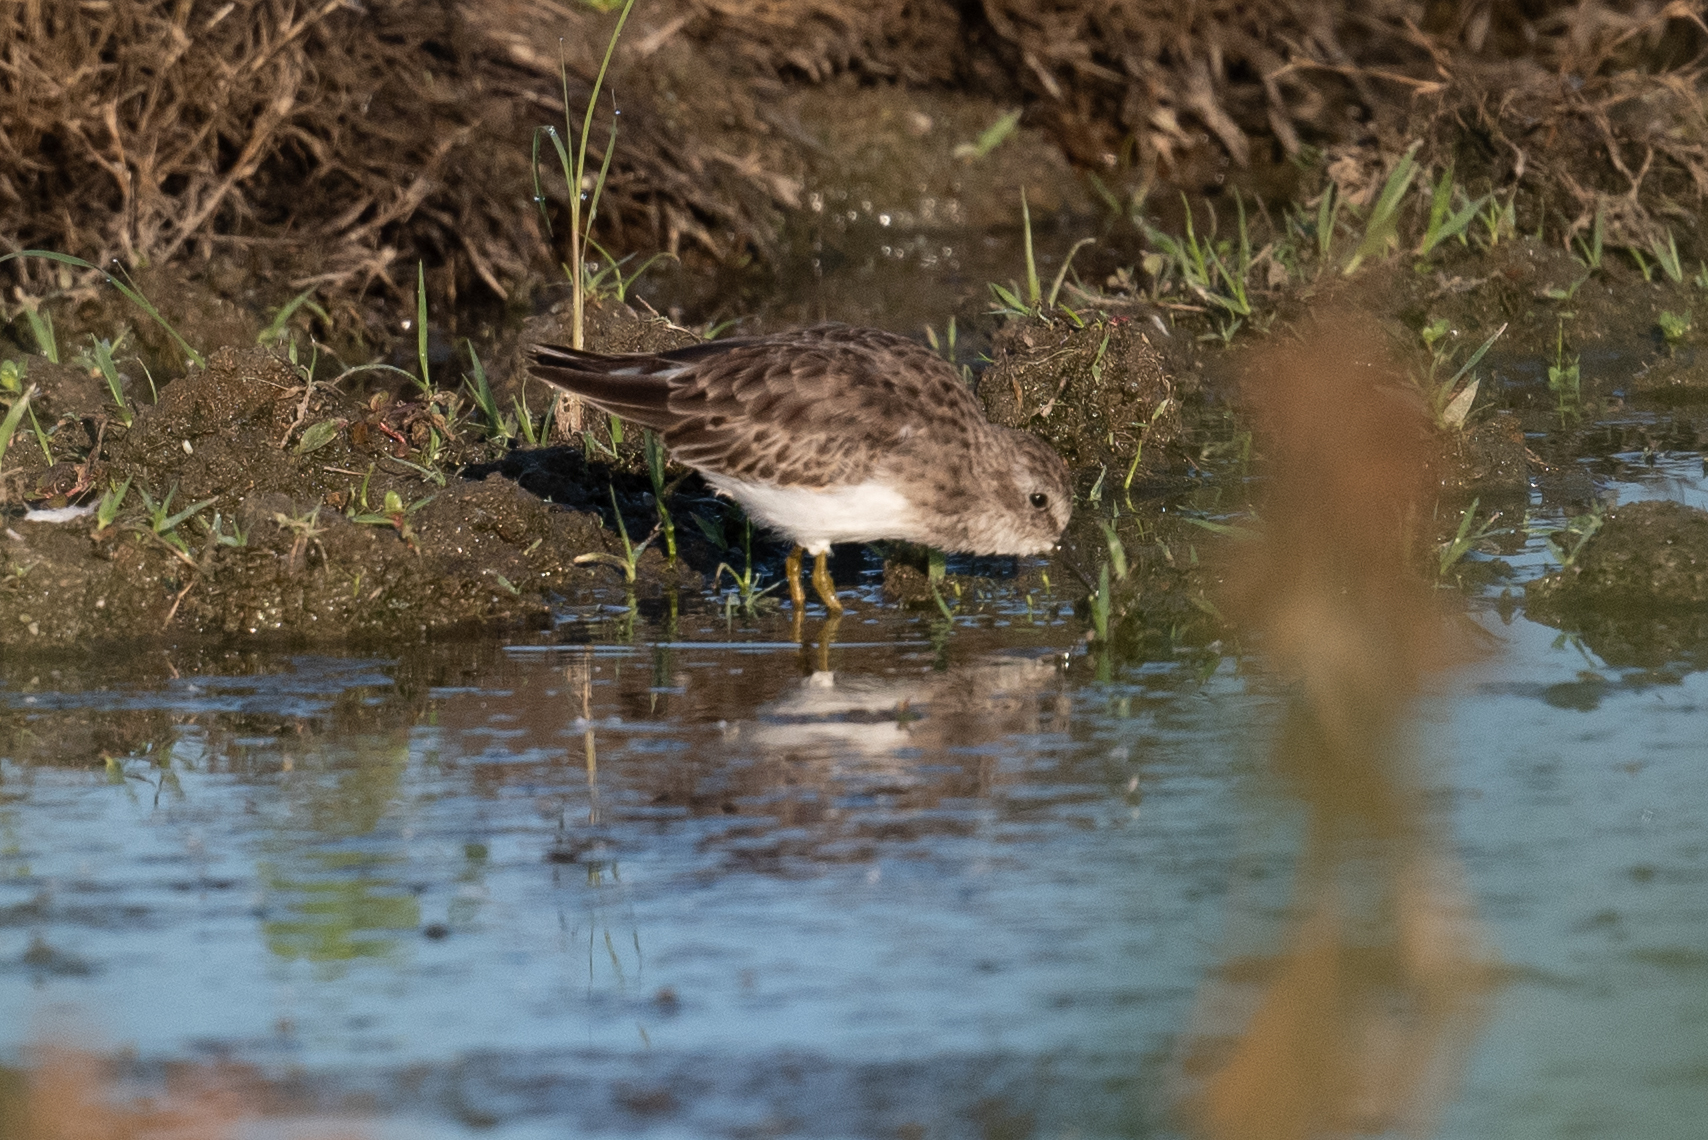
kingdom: Animalia
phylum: Chordata
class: Aves
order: Charadriiformes
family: Scolopacidae
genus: Calidris
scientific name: Calidris minutilla
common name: Least sandpiper
